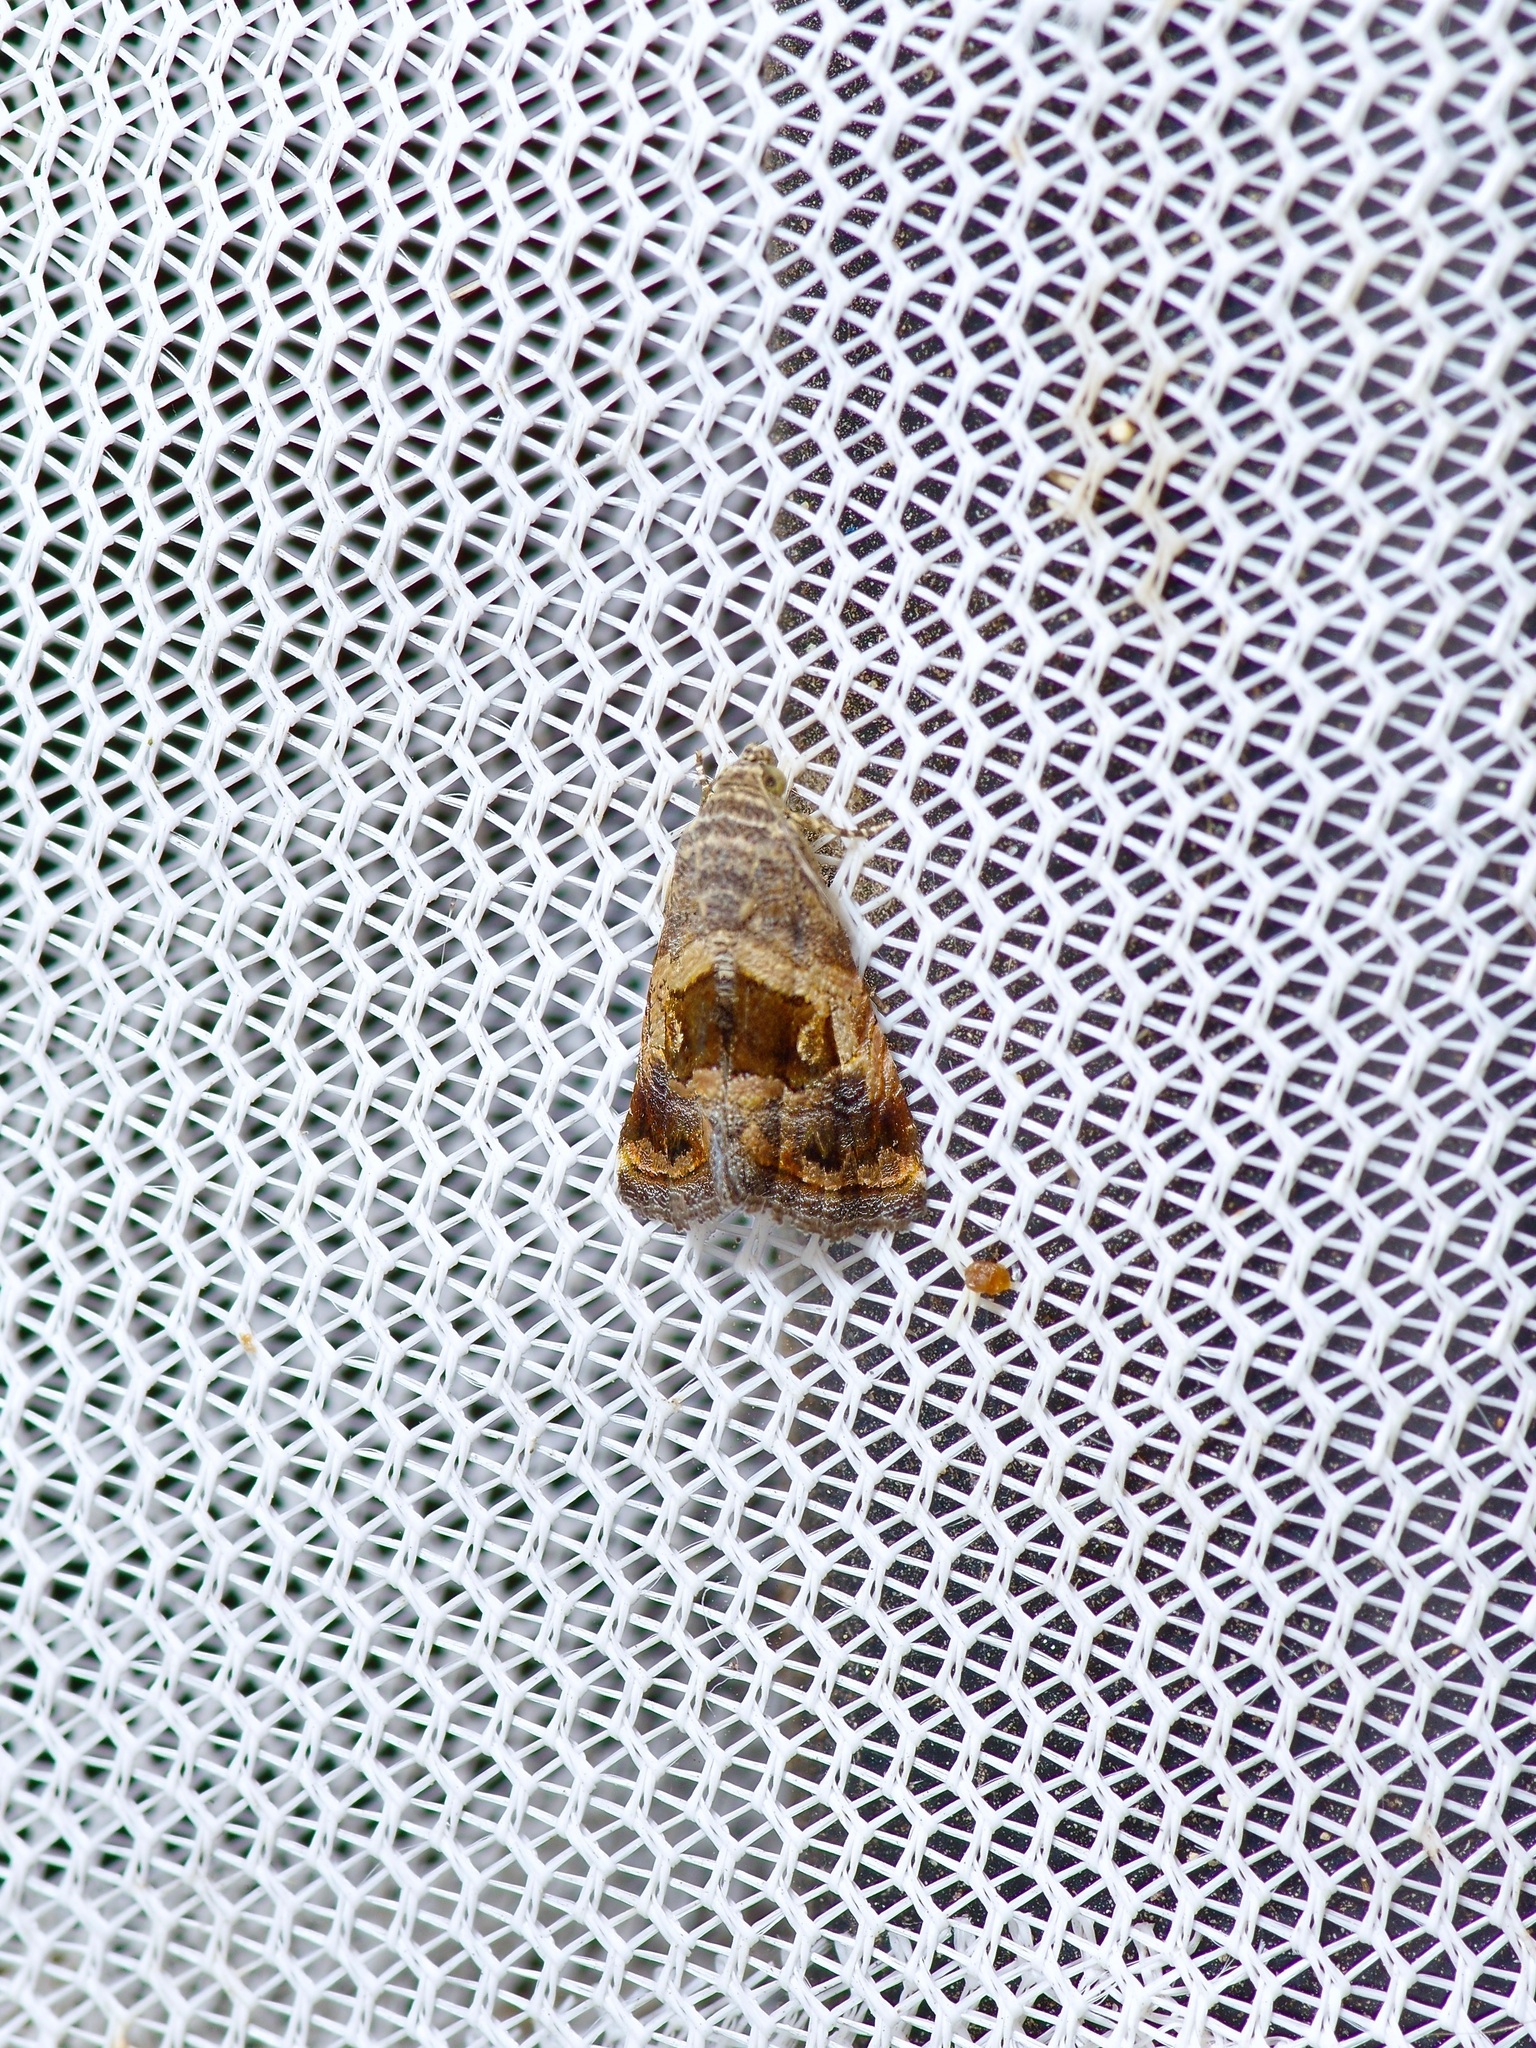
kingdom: Animalia
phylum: Arthropoda
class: Insecta
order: Lepidoptera
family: Noctuidae
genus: Tripudia
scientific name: Tripudia quadrifera
